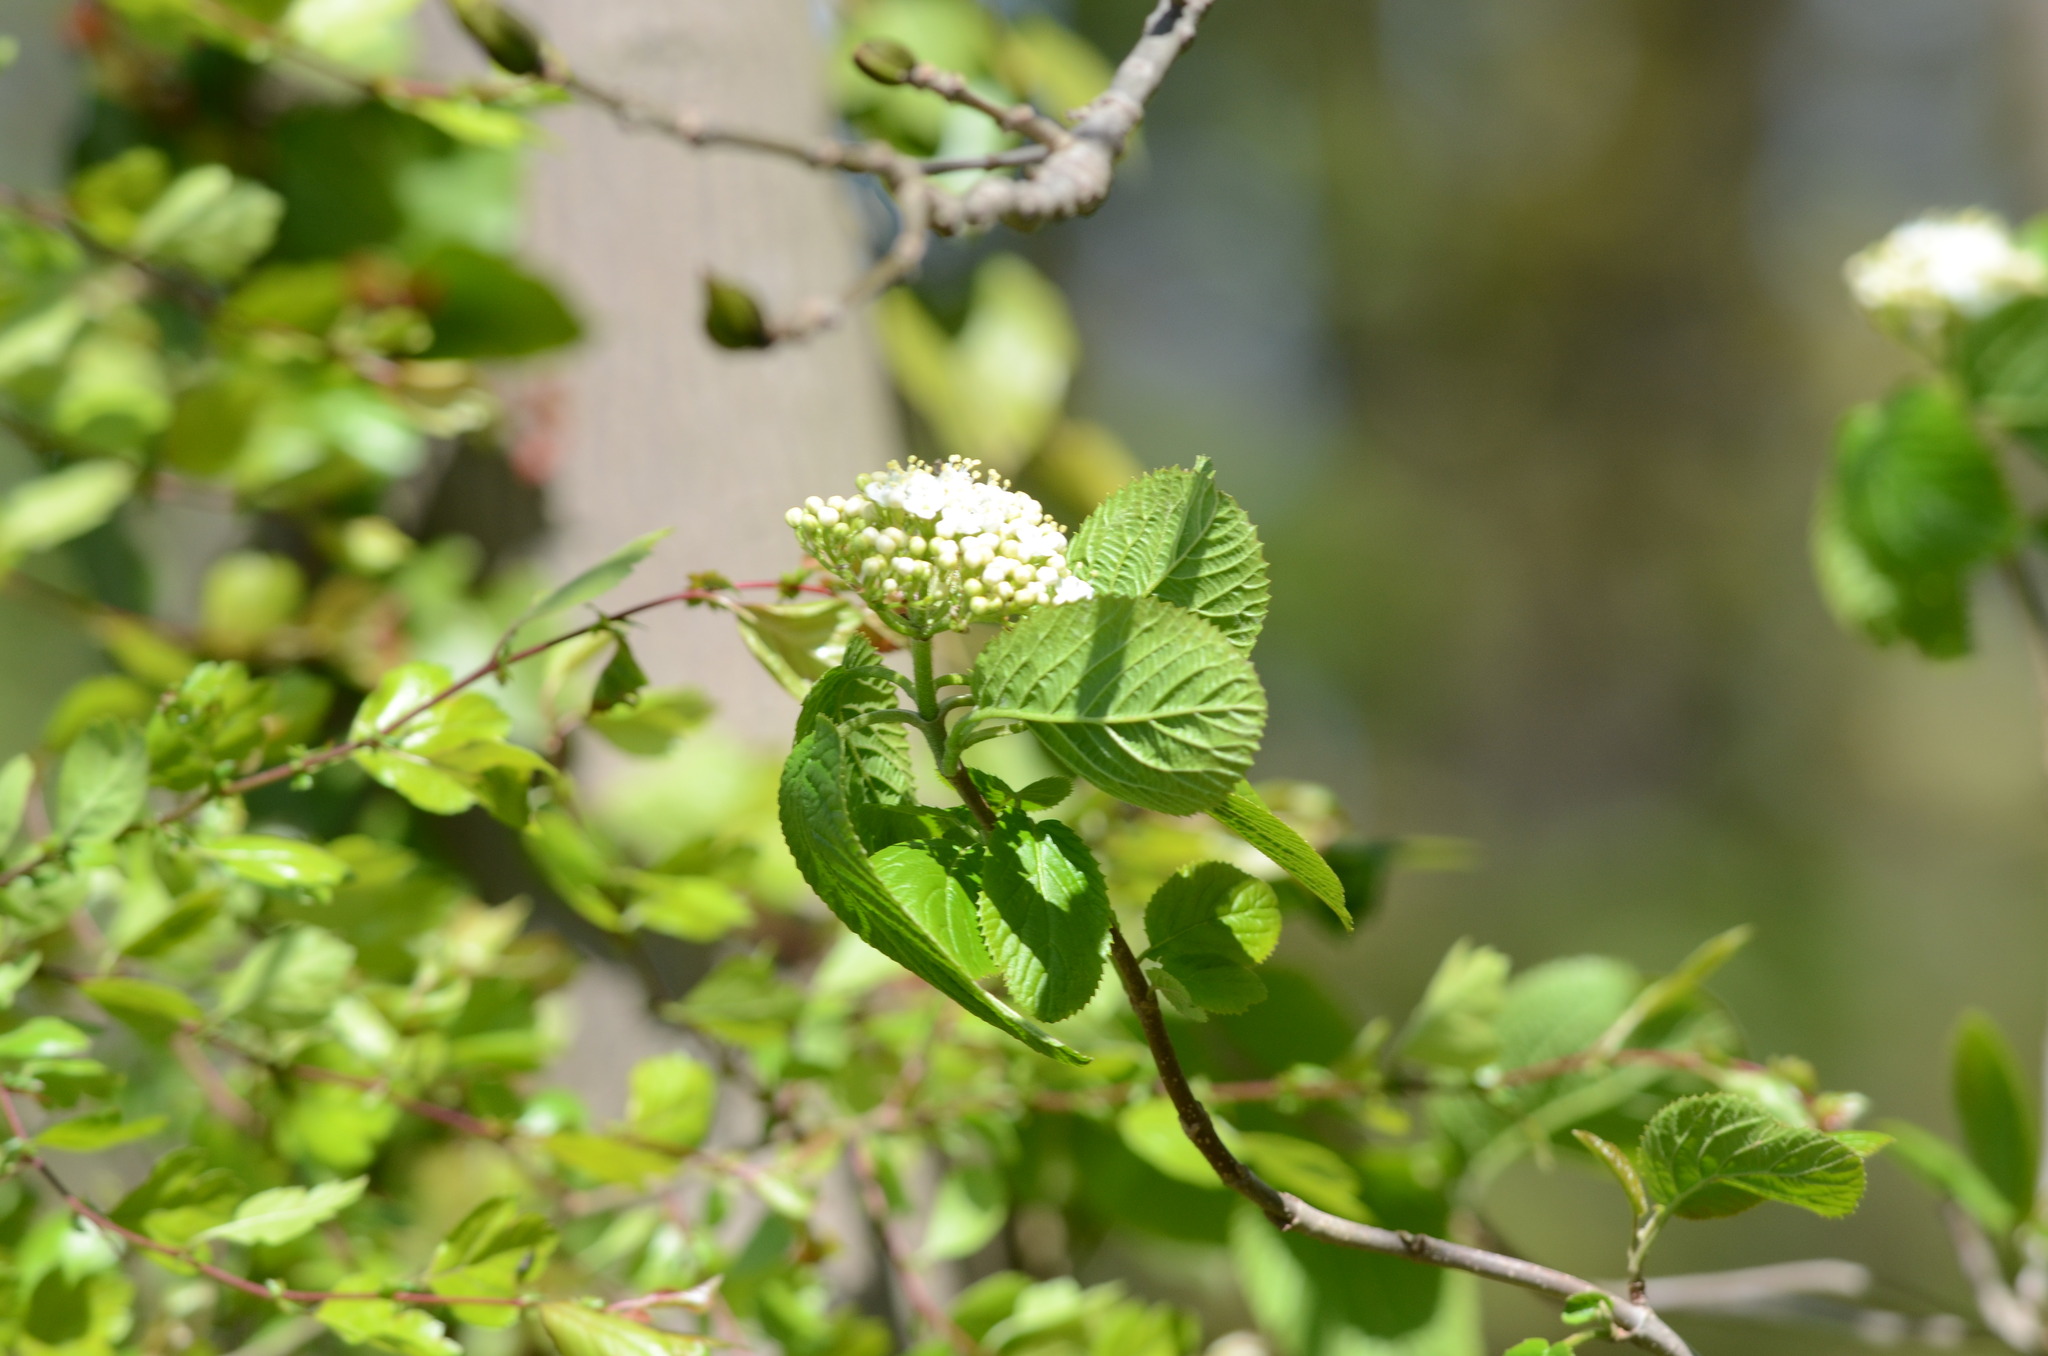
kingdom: Plantae
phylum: Tracheophyta
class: Magnoliopsida
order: Dipsacales
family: Viburnaceae
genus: Viburnum
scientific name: Viburnum lantana
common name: Wayfaring tree
